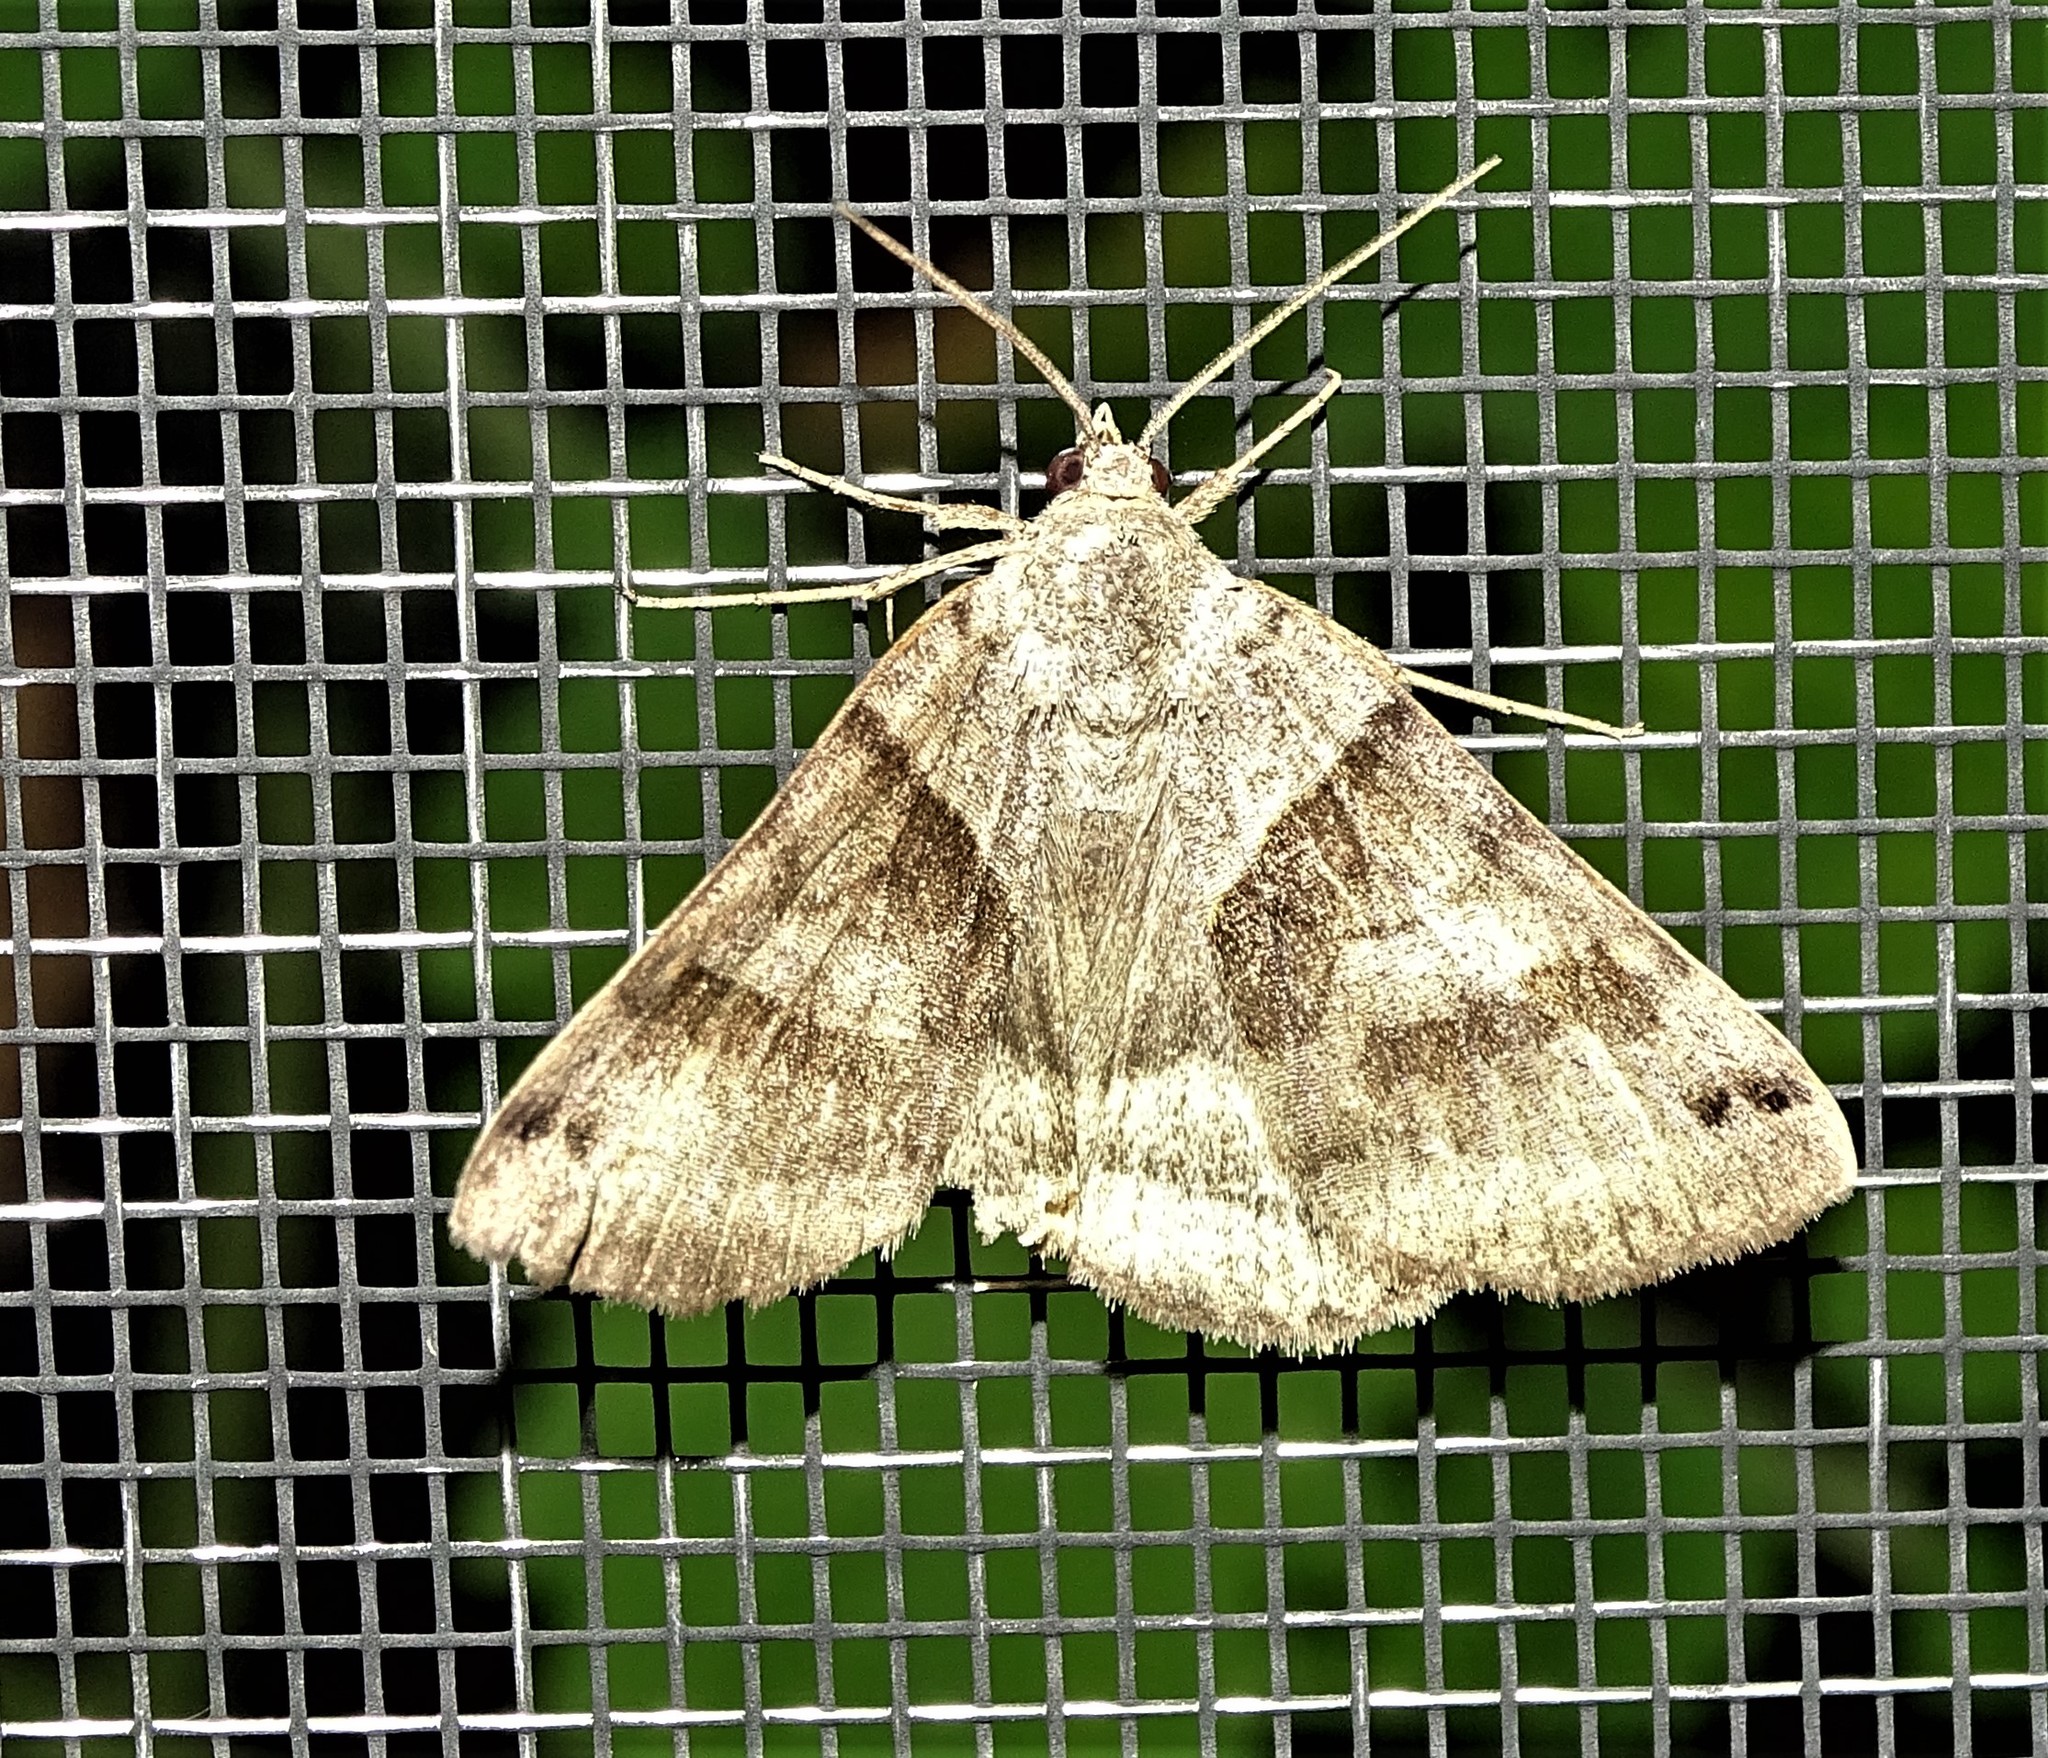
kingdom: Animalia
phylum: Arthropoda
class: Insecta
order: Lepidoptera
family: Erebidae
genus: Caenurgina
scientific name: Caenurgina crassiuscula
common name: Double-barred
